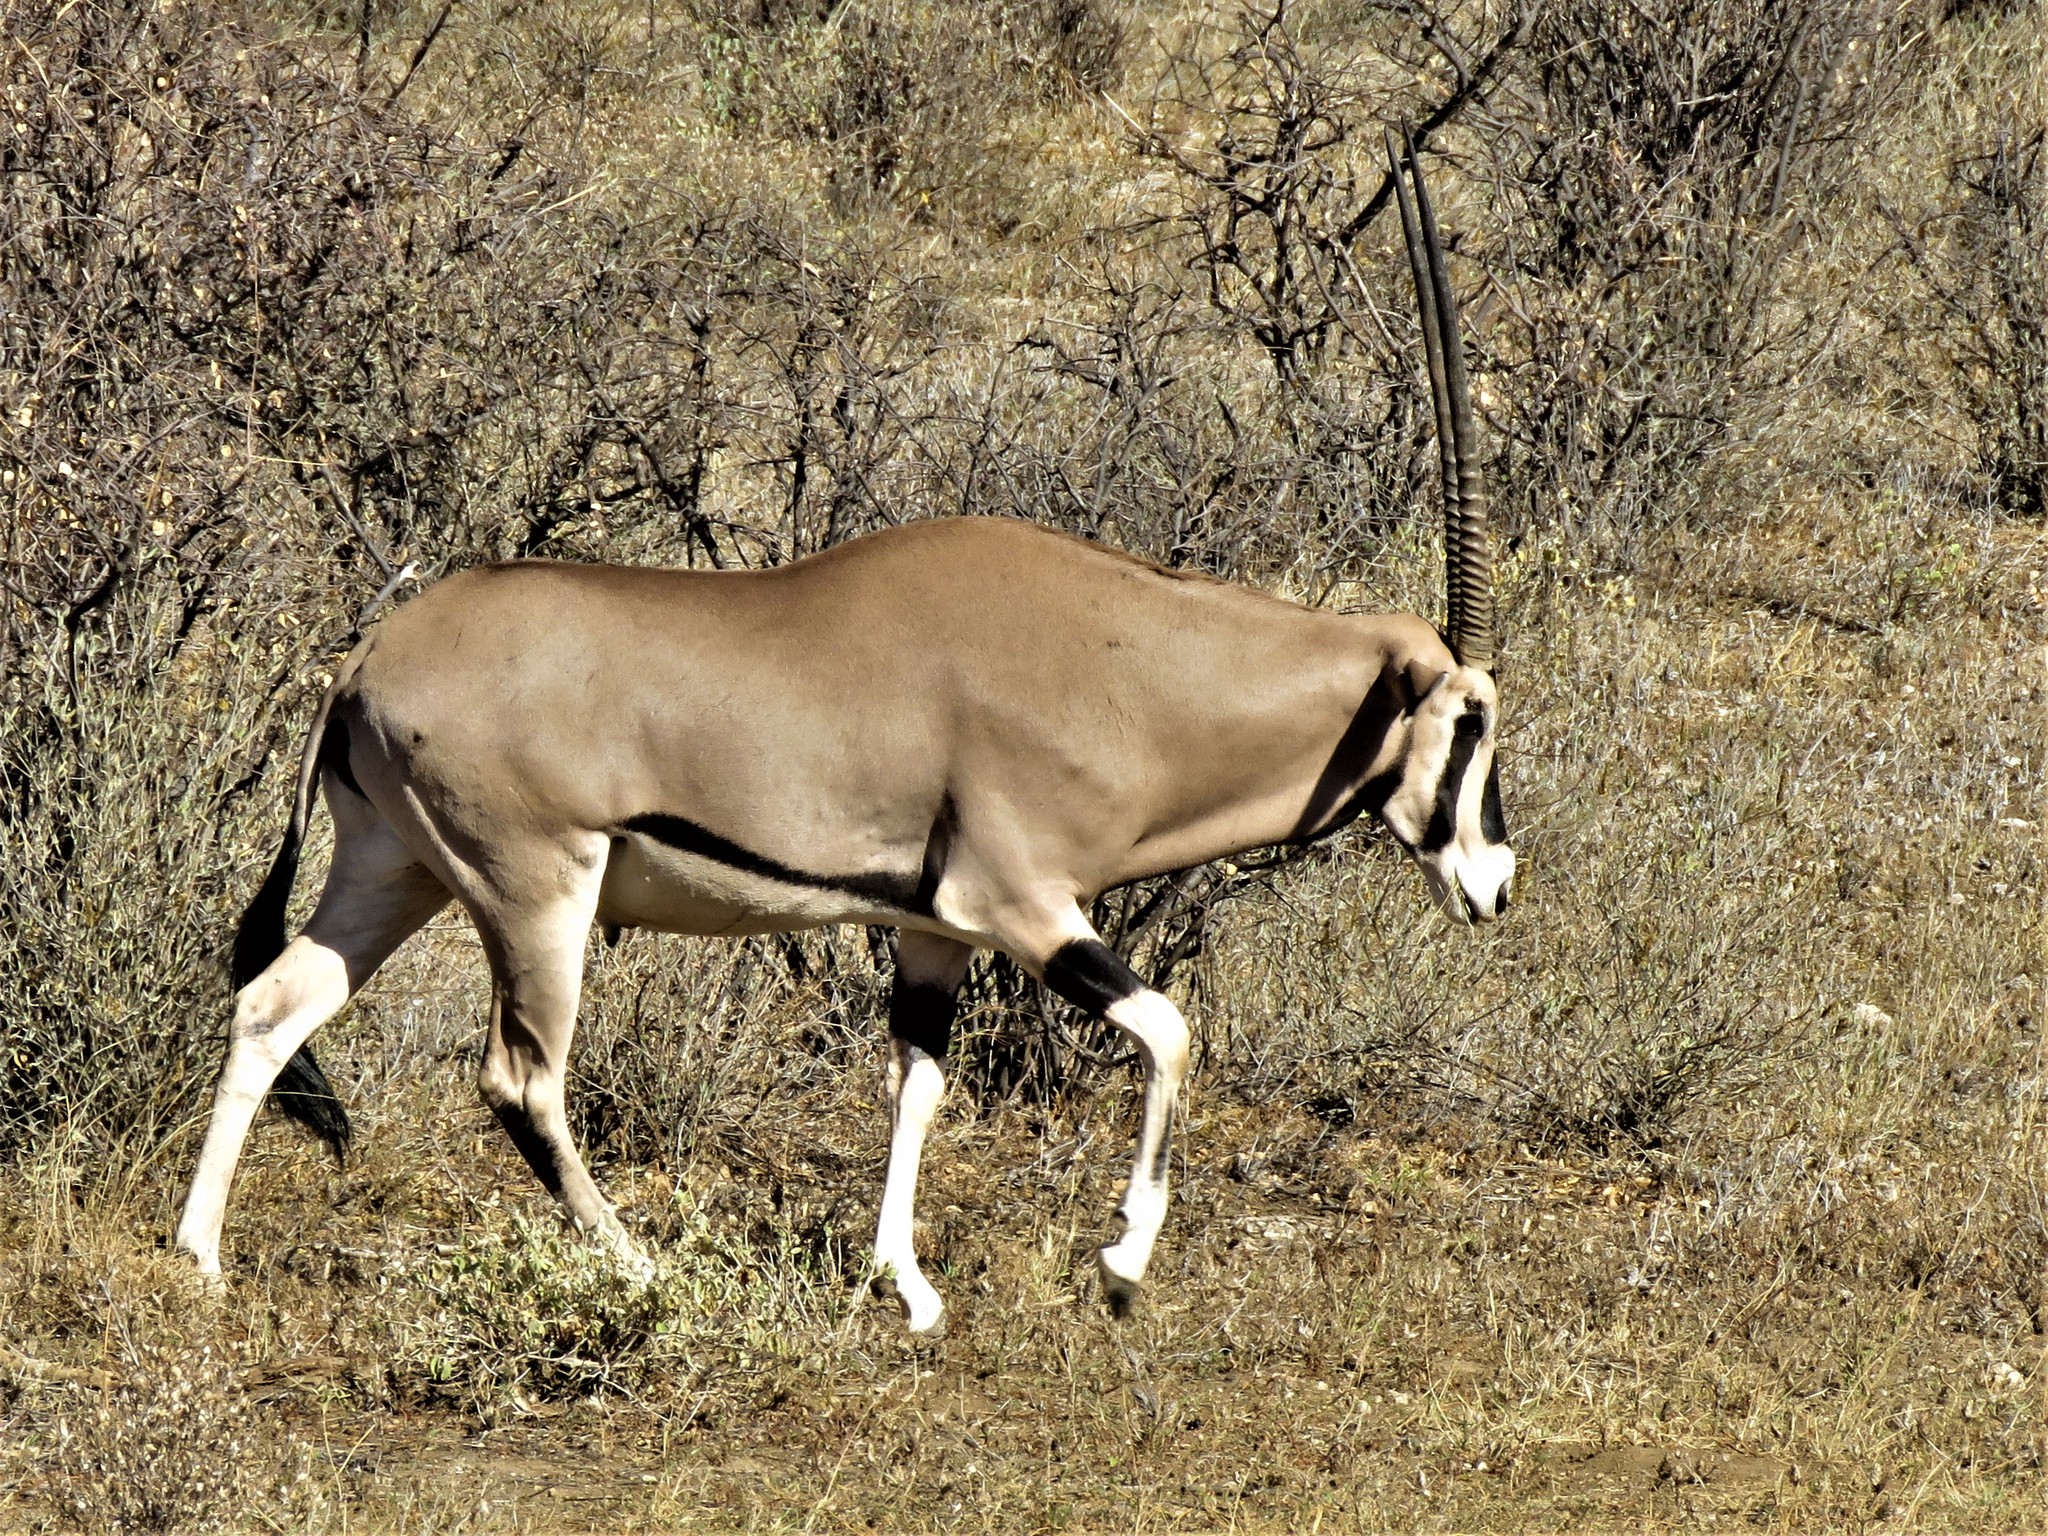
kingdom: Animalia
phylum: Chordata
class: Mammalia
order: Artiodactyla
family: Bovidae
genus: Oryx
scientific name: Oryx beisa
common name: Beisa
